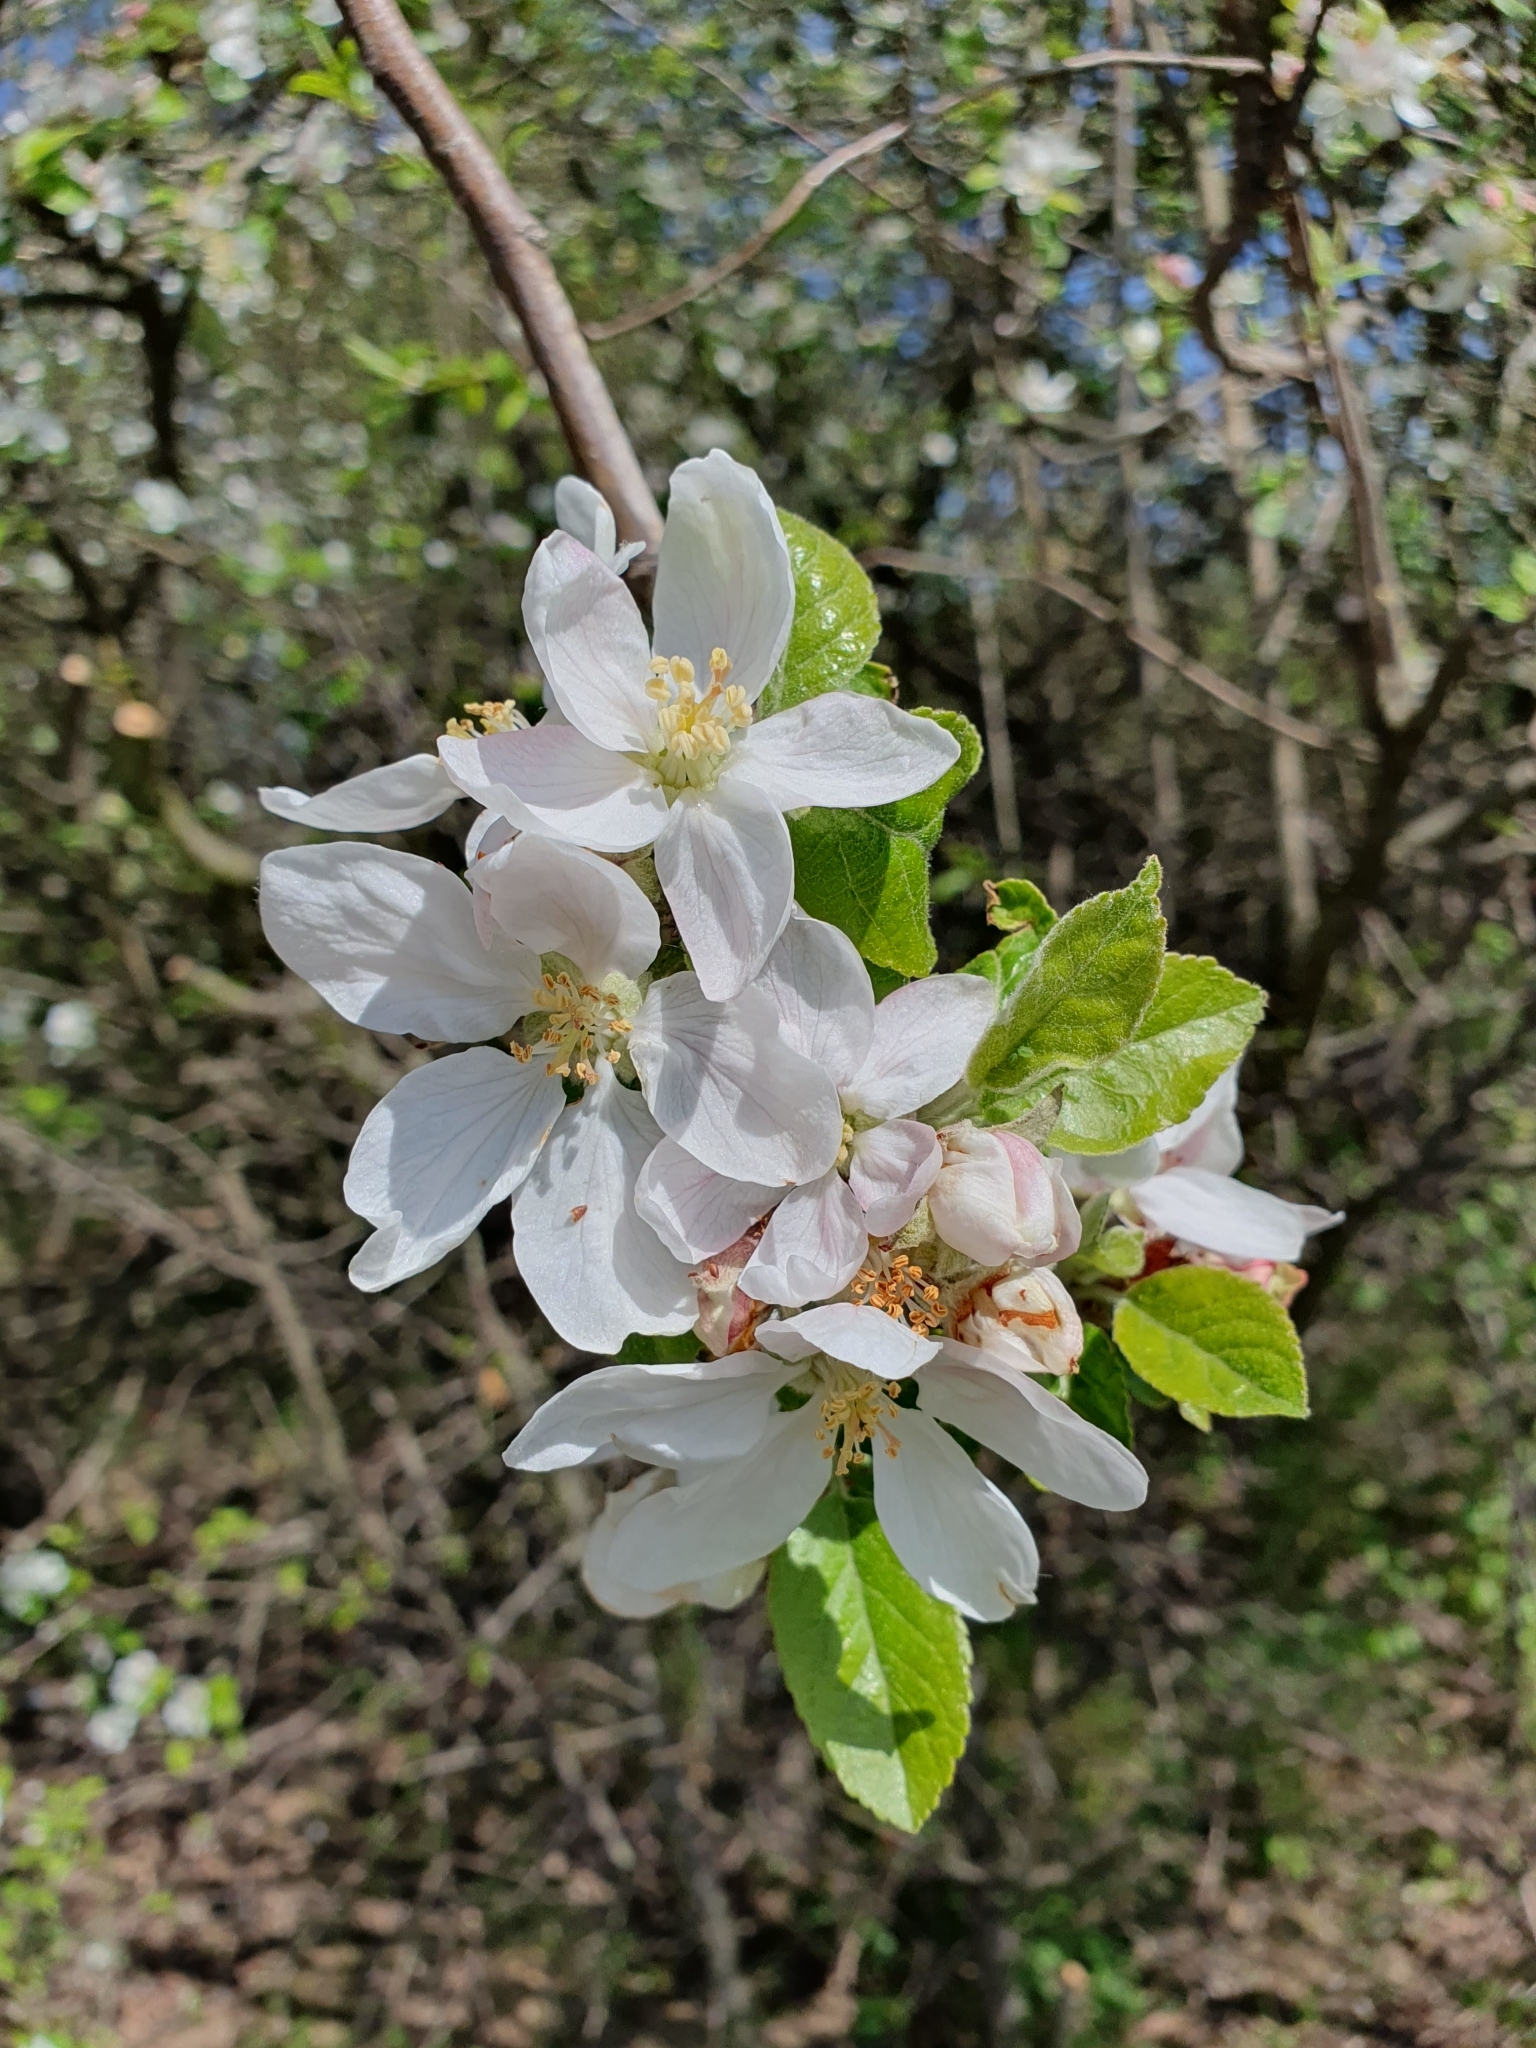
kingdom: Plantae
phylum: Tracheophyta
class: Magnoliopsida
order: Rosales
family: Rosaceae
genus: Malus
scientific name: Malus domestica
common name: Apple
